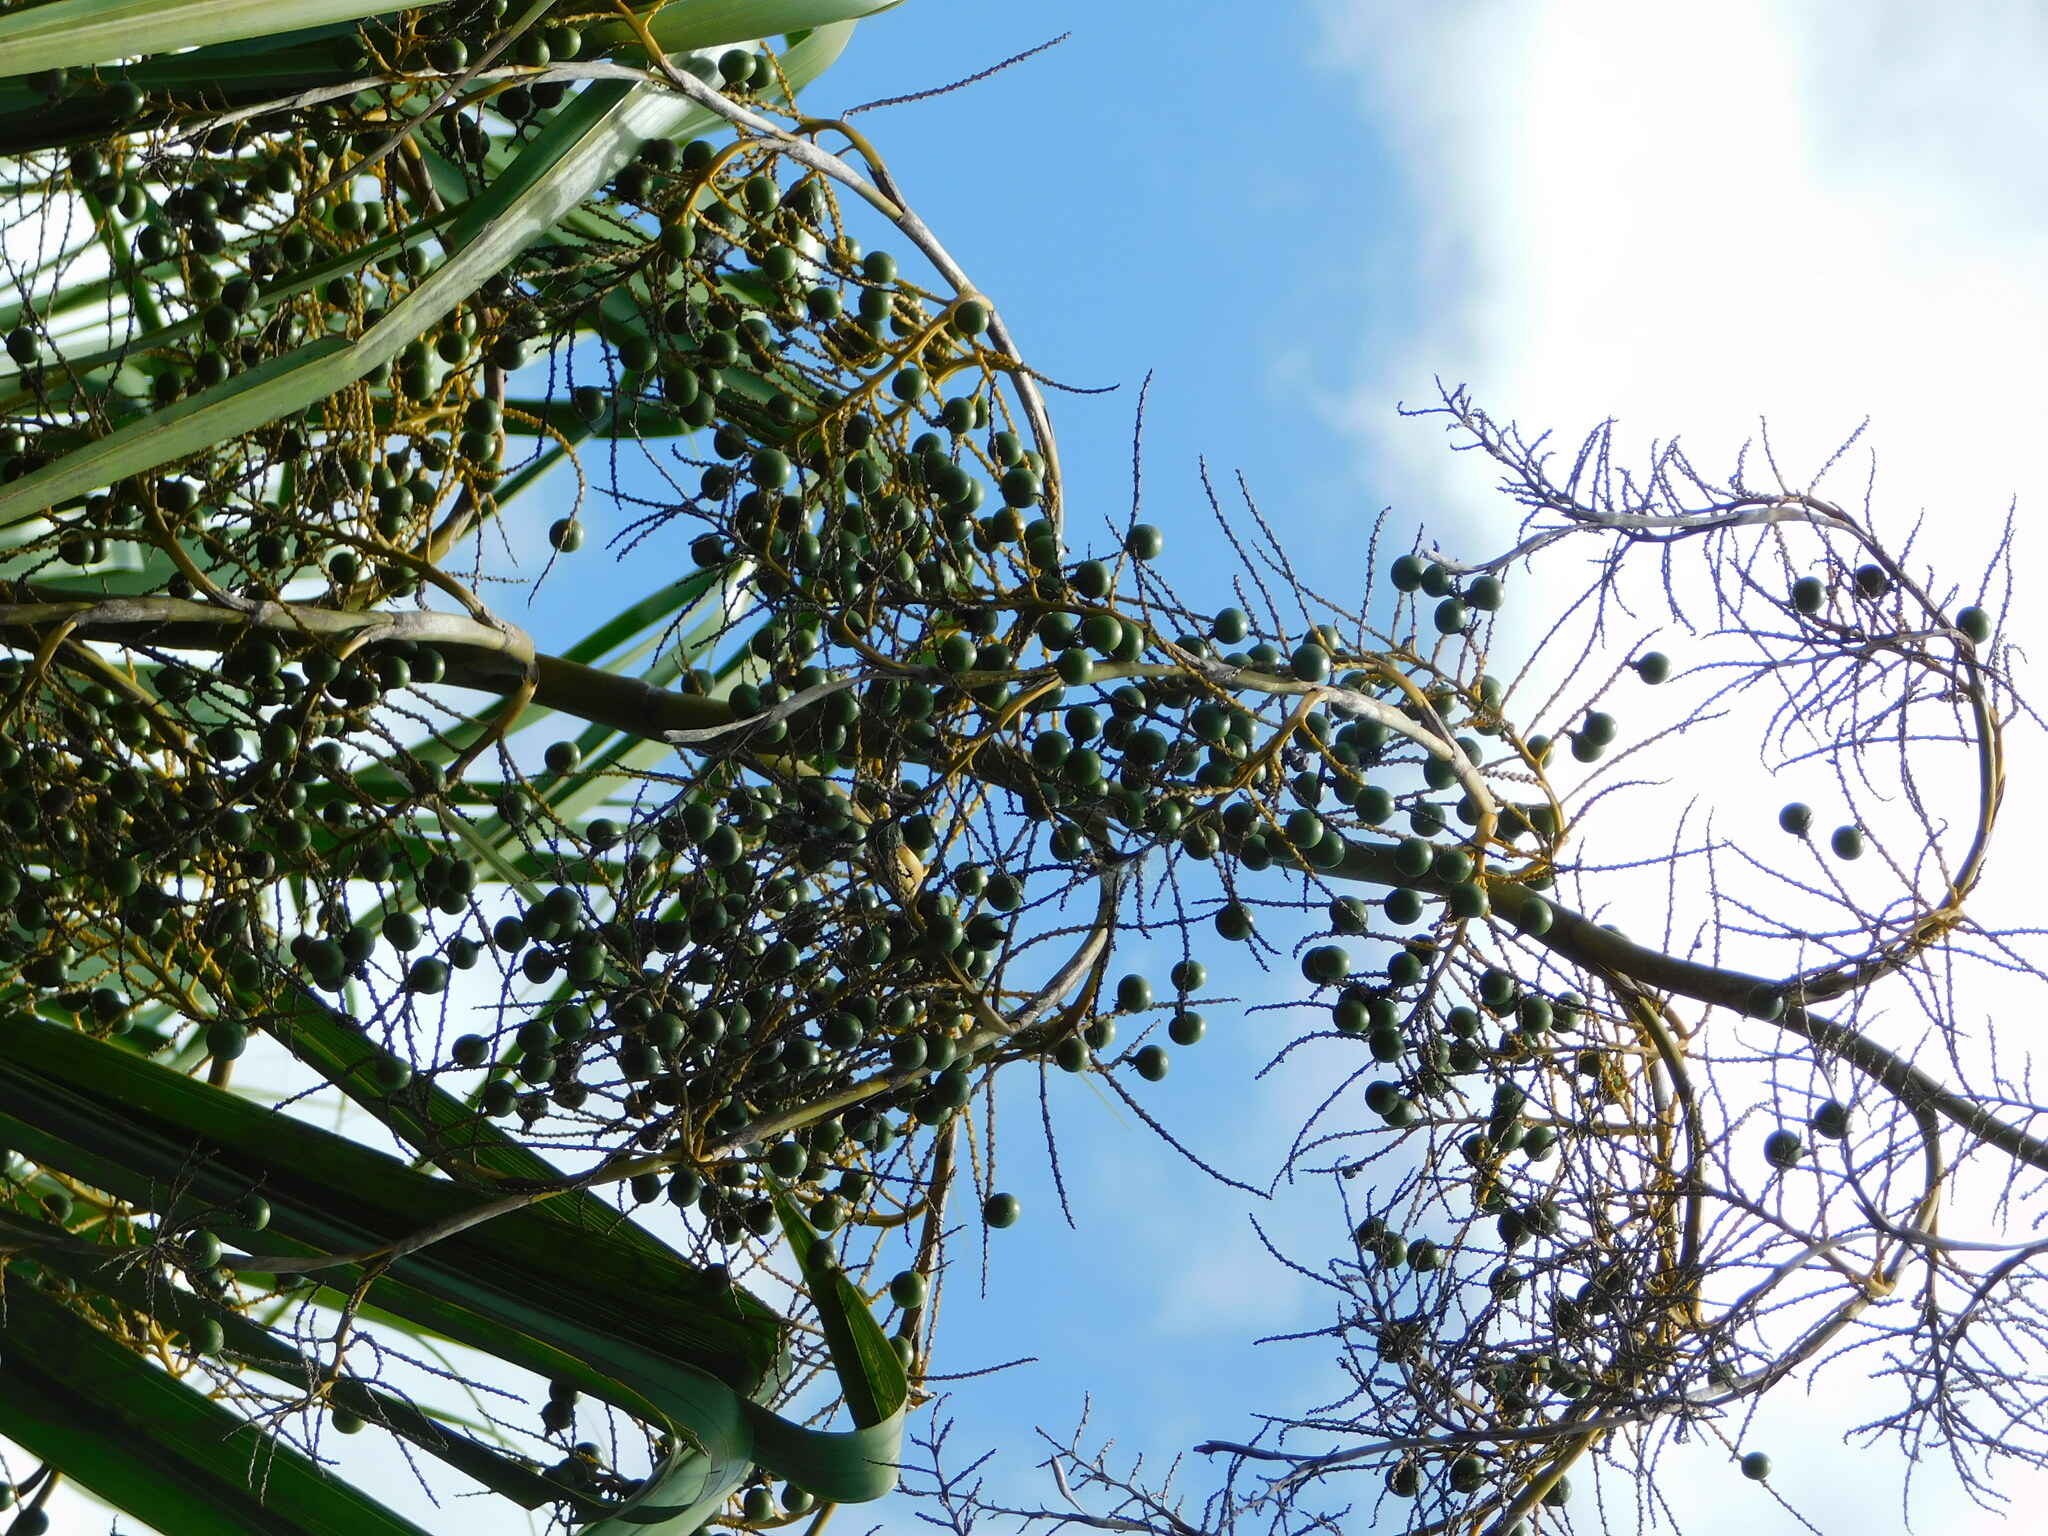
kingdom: Plantae
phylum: Tracheophyta
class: Liliopsida
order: Arecales
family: Arecaceae
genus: Sabal
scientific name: Sabal yapa
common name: Thatch palm
